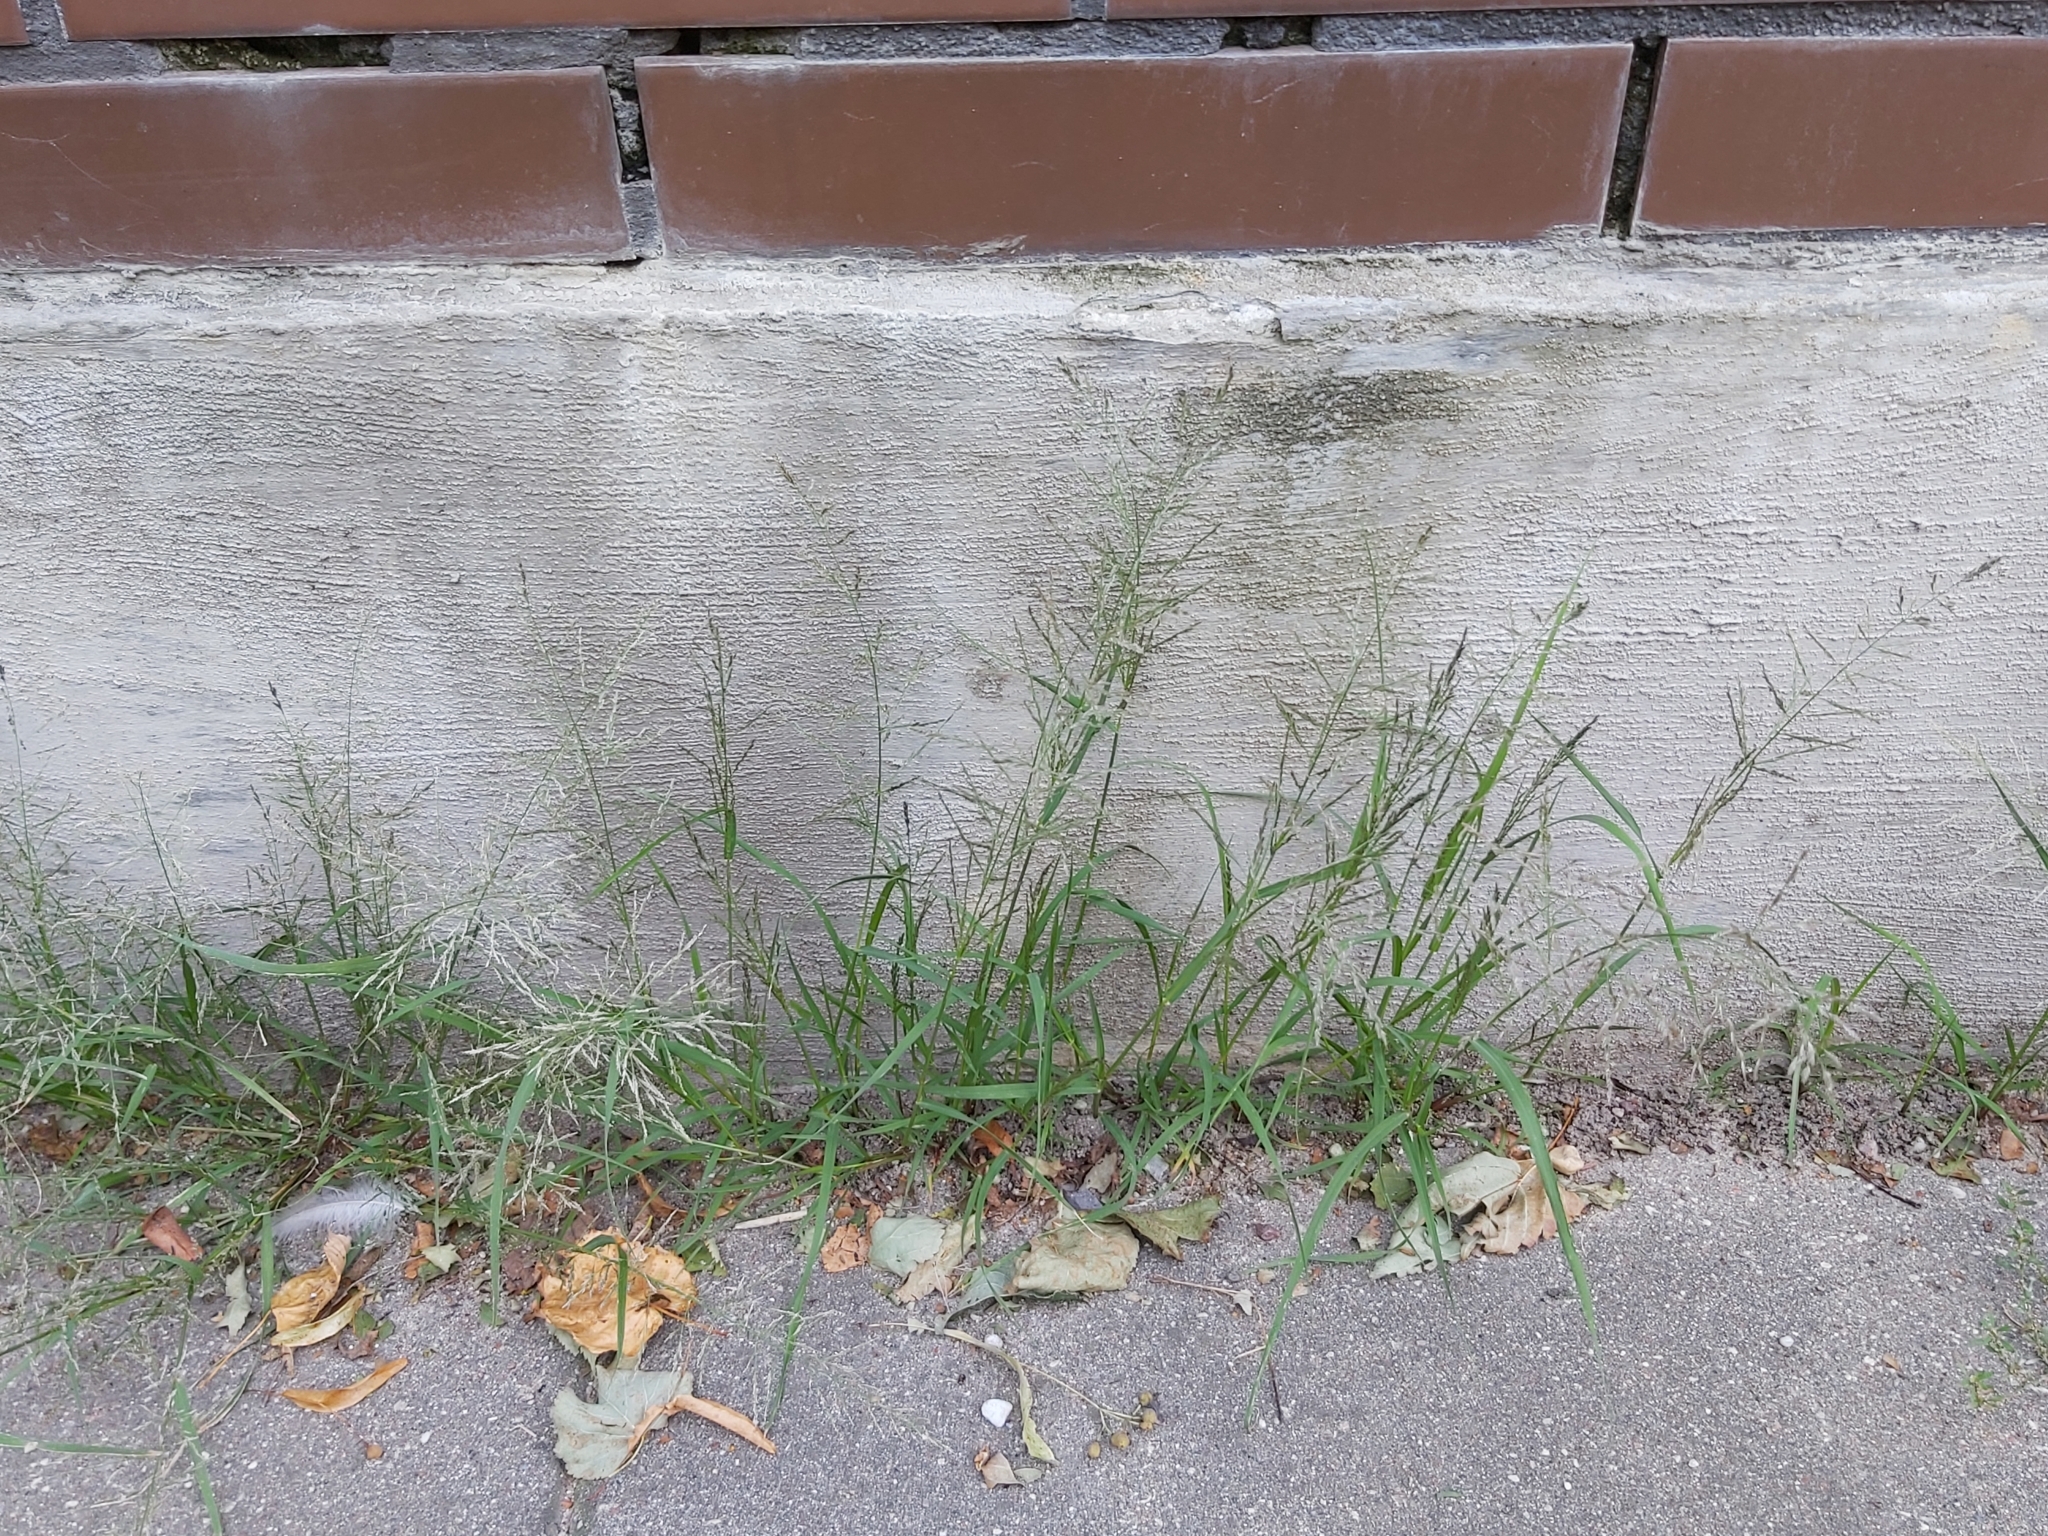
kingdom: Plantae
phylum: Tracheophyta
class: Liliopsida
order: Poales
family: Poaceae
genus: Puccinellia
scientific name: Puccinellia distans
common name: Weeping alkaligrass
